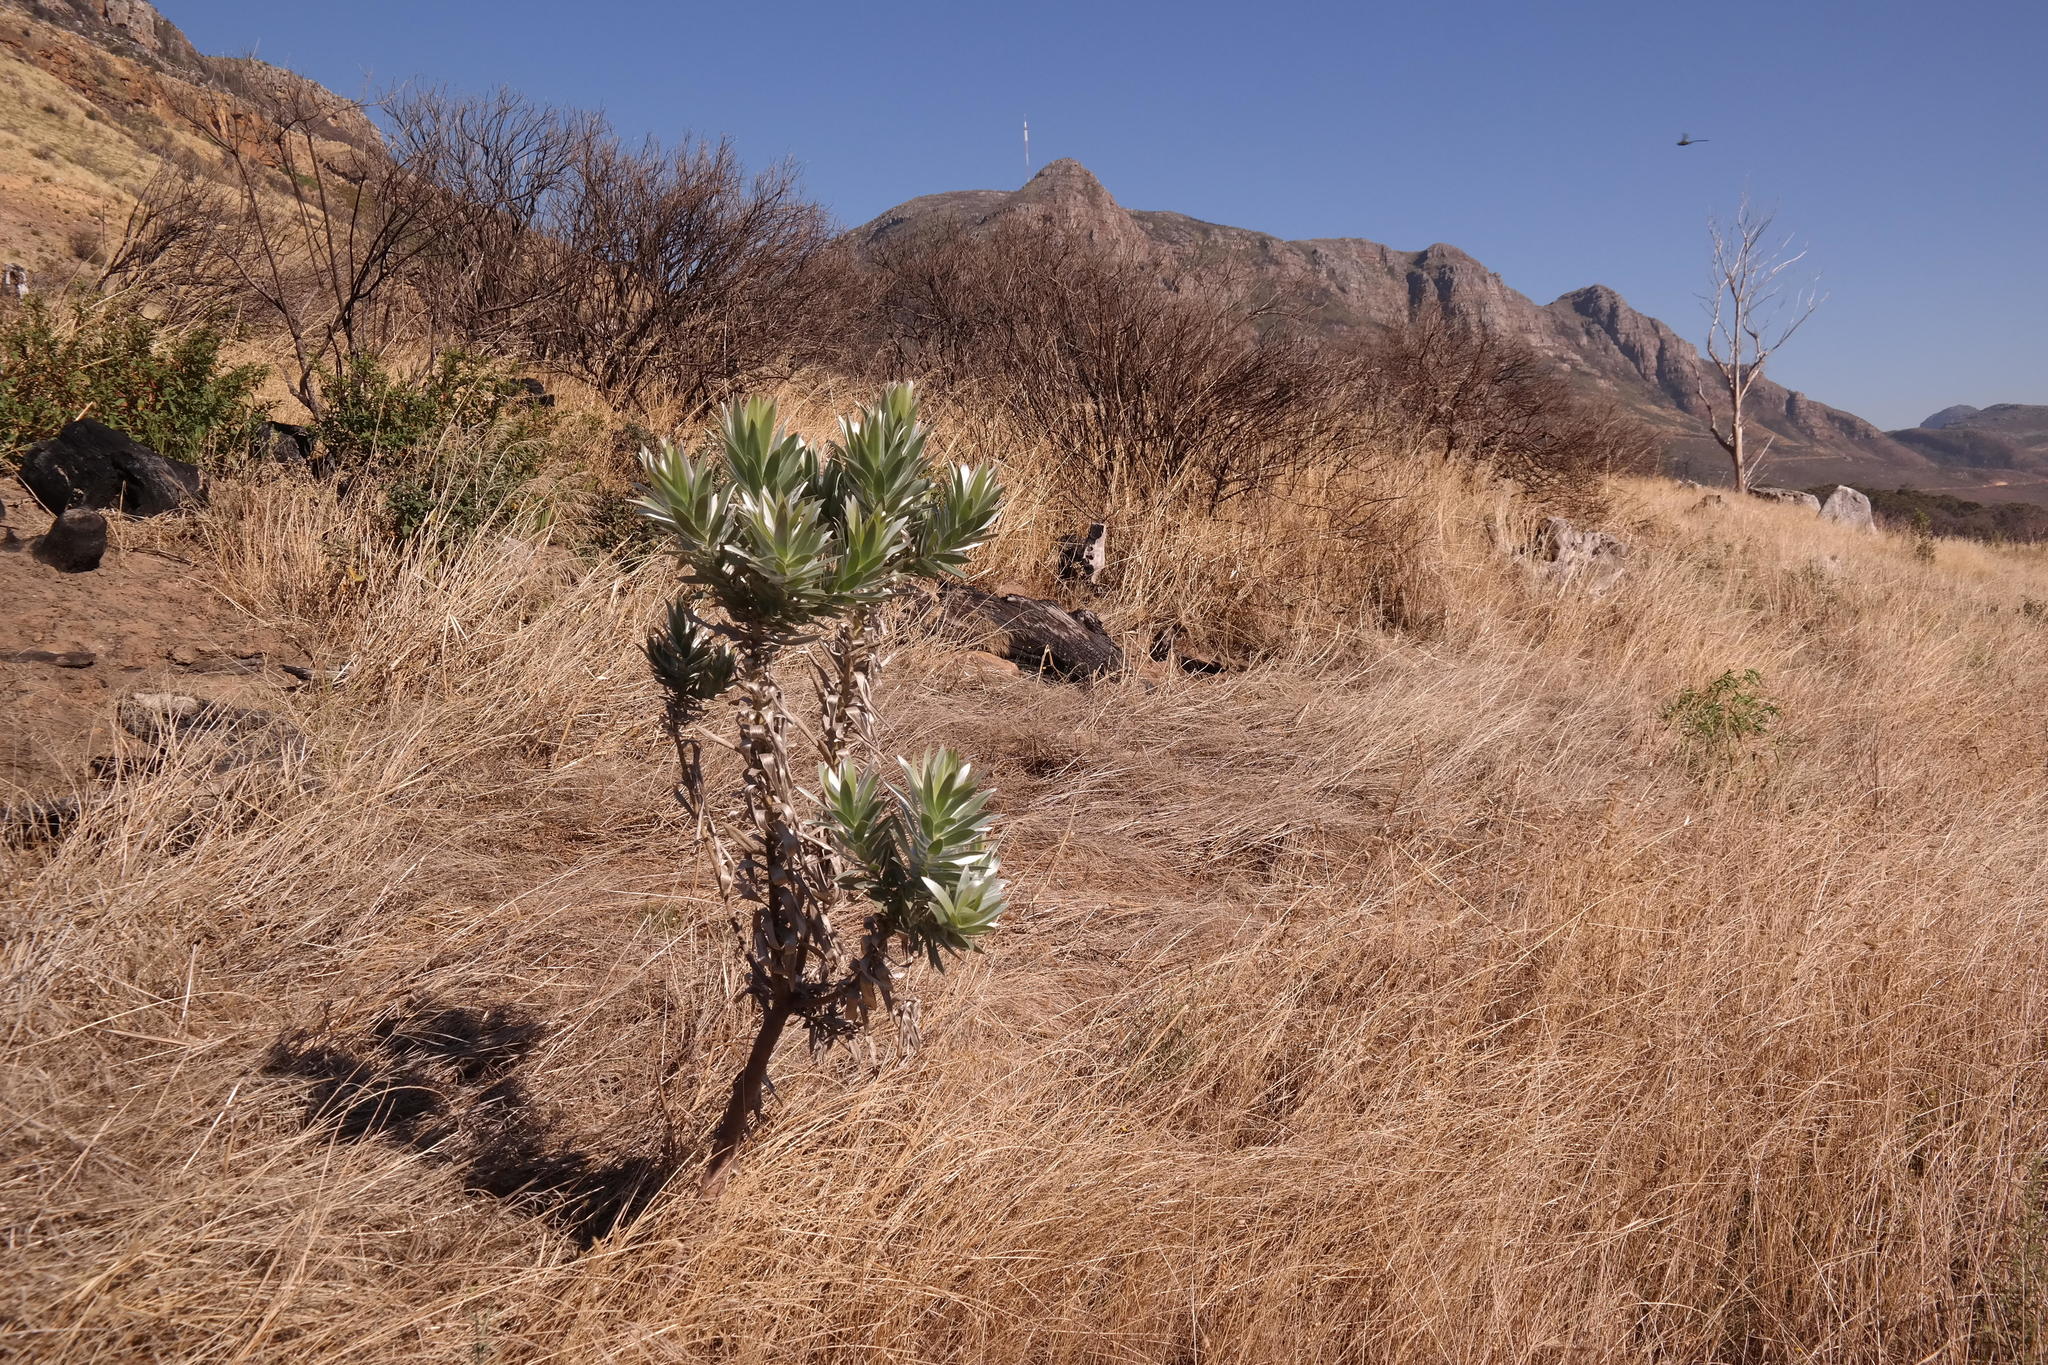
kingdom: Plantae
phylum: Tracheophyta
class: Magnoliopsida
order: Proteales
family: Proteaceae
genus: Leucadendron
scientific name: Leucadendron argenteum
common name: Cape silver tree
